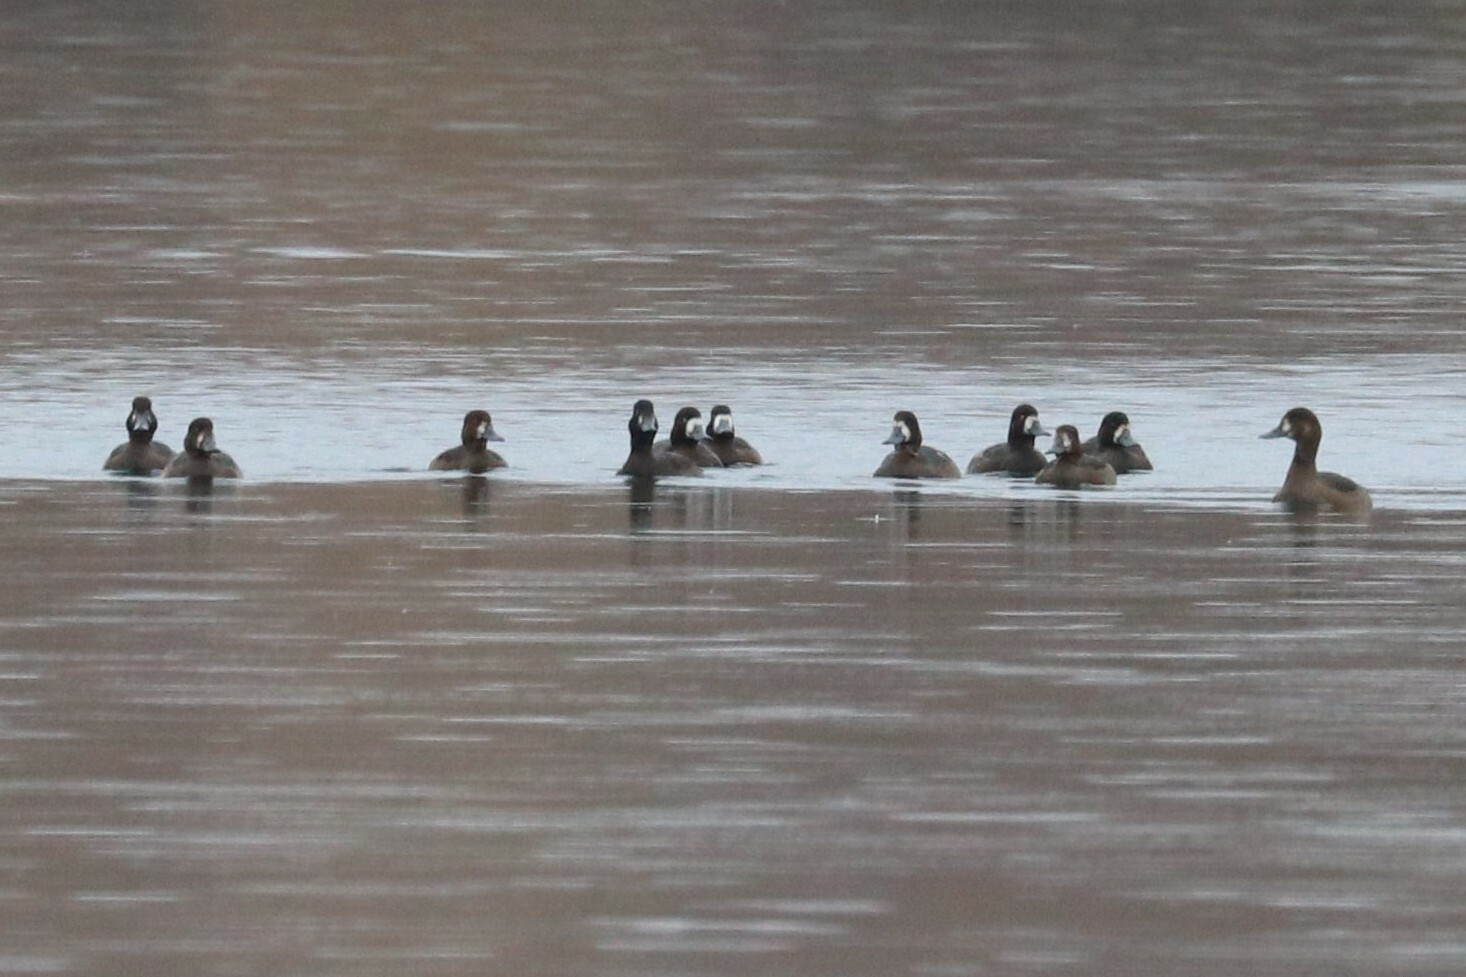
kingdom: Animalia
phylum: Chordata
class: Aves
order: Anseriformes
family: Anatidae
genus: Aythya
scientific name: Aythya marila
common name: Greater scaup
